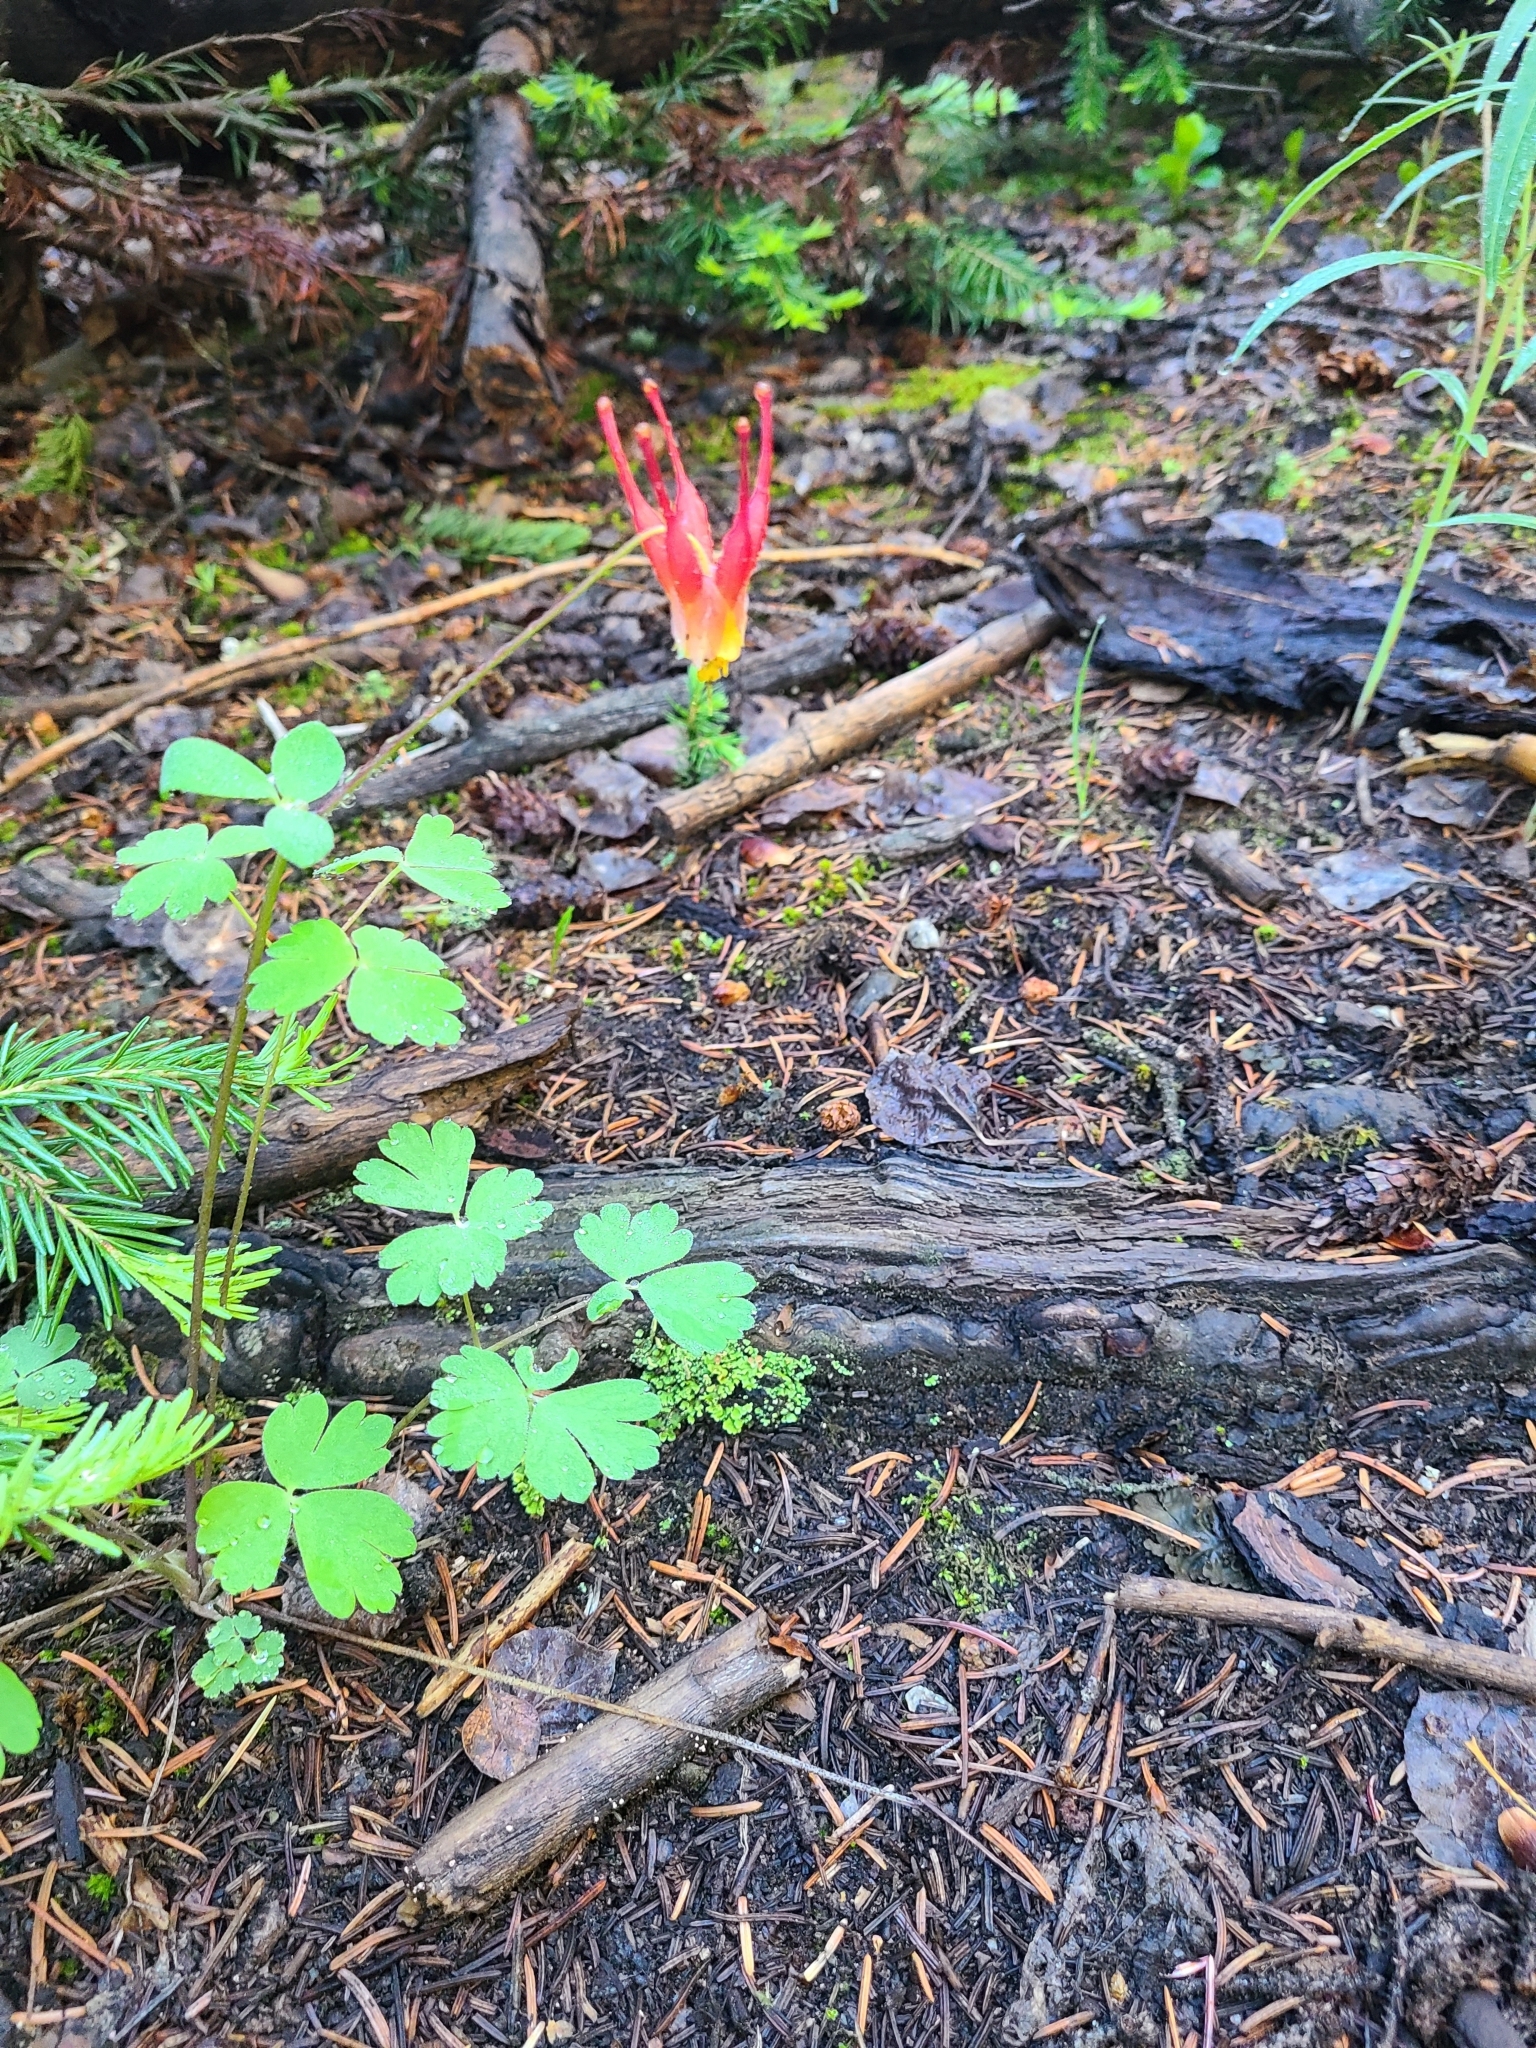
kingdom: Plantae
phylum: Tracheophyta
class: Magnoliopsida
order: Ranunculales
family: Ranunculaceae
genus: Aquilegia
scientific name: Aquilegia elegantula
